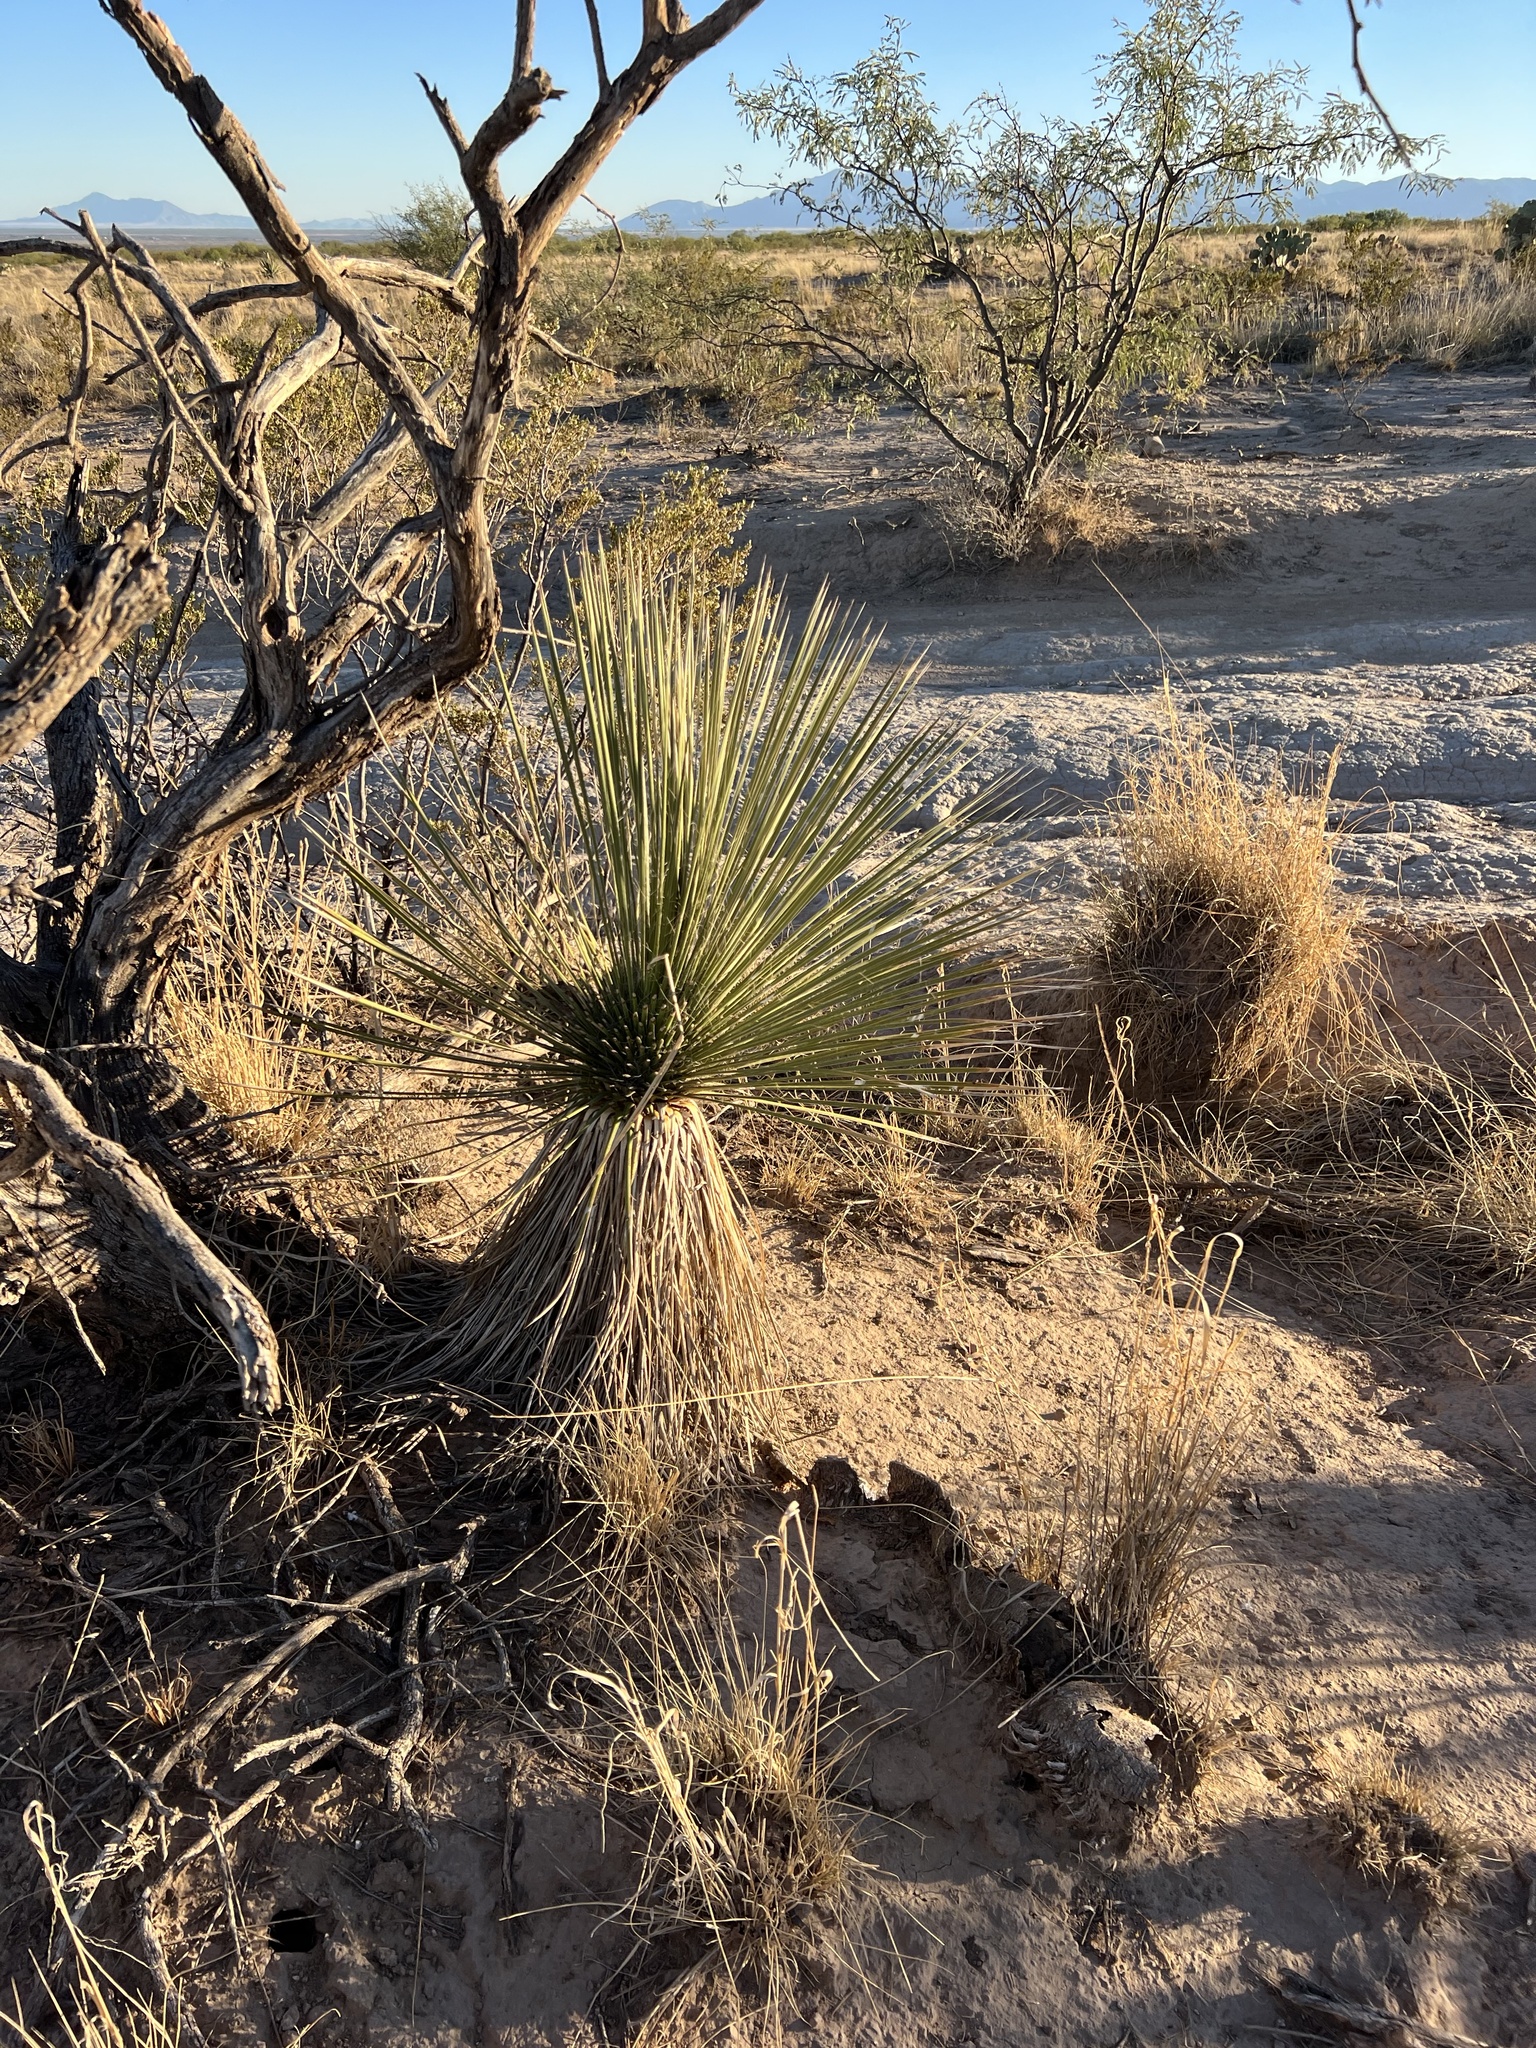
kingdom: Plantae
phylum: Tracheophyta
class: Liliopsida
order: Asparagales
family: Asparagaceae
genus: Yucca
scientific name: Yucca elata
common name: Palmella
